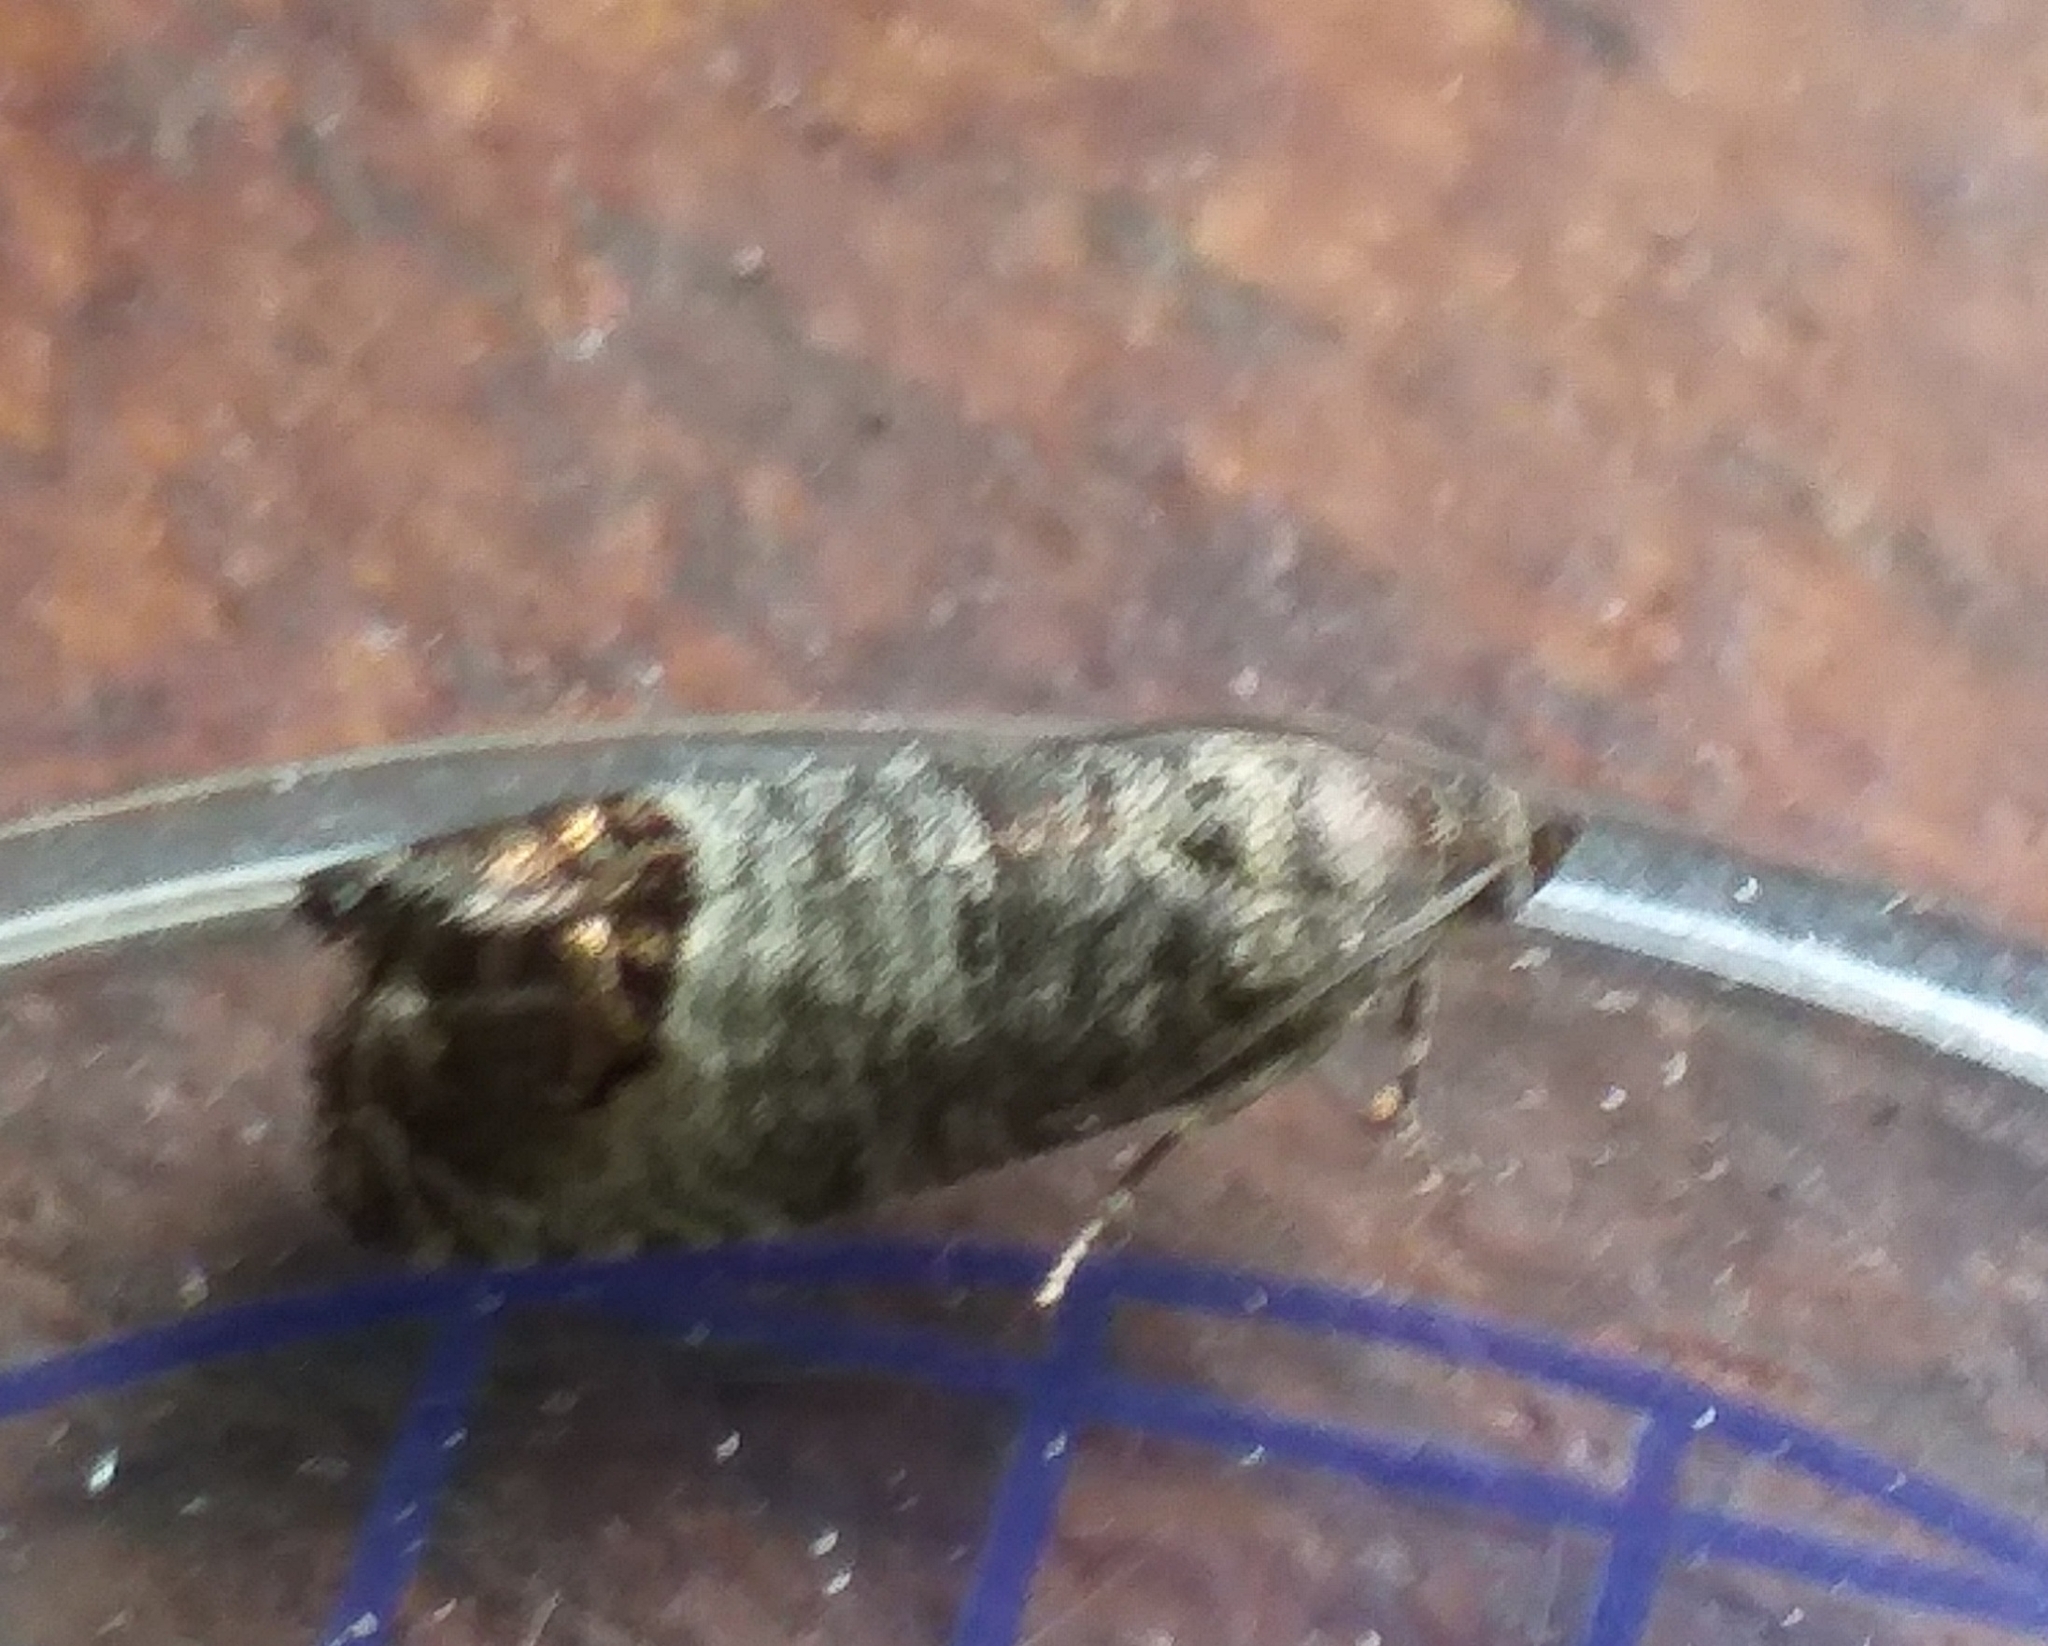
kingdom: Animalia
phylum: Arthropoda
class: Insecta
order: Lepidoptera
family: Tortricidae
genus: Cydia
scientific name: Cydia pomonella
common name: Codling moth
